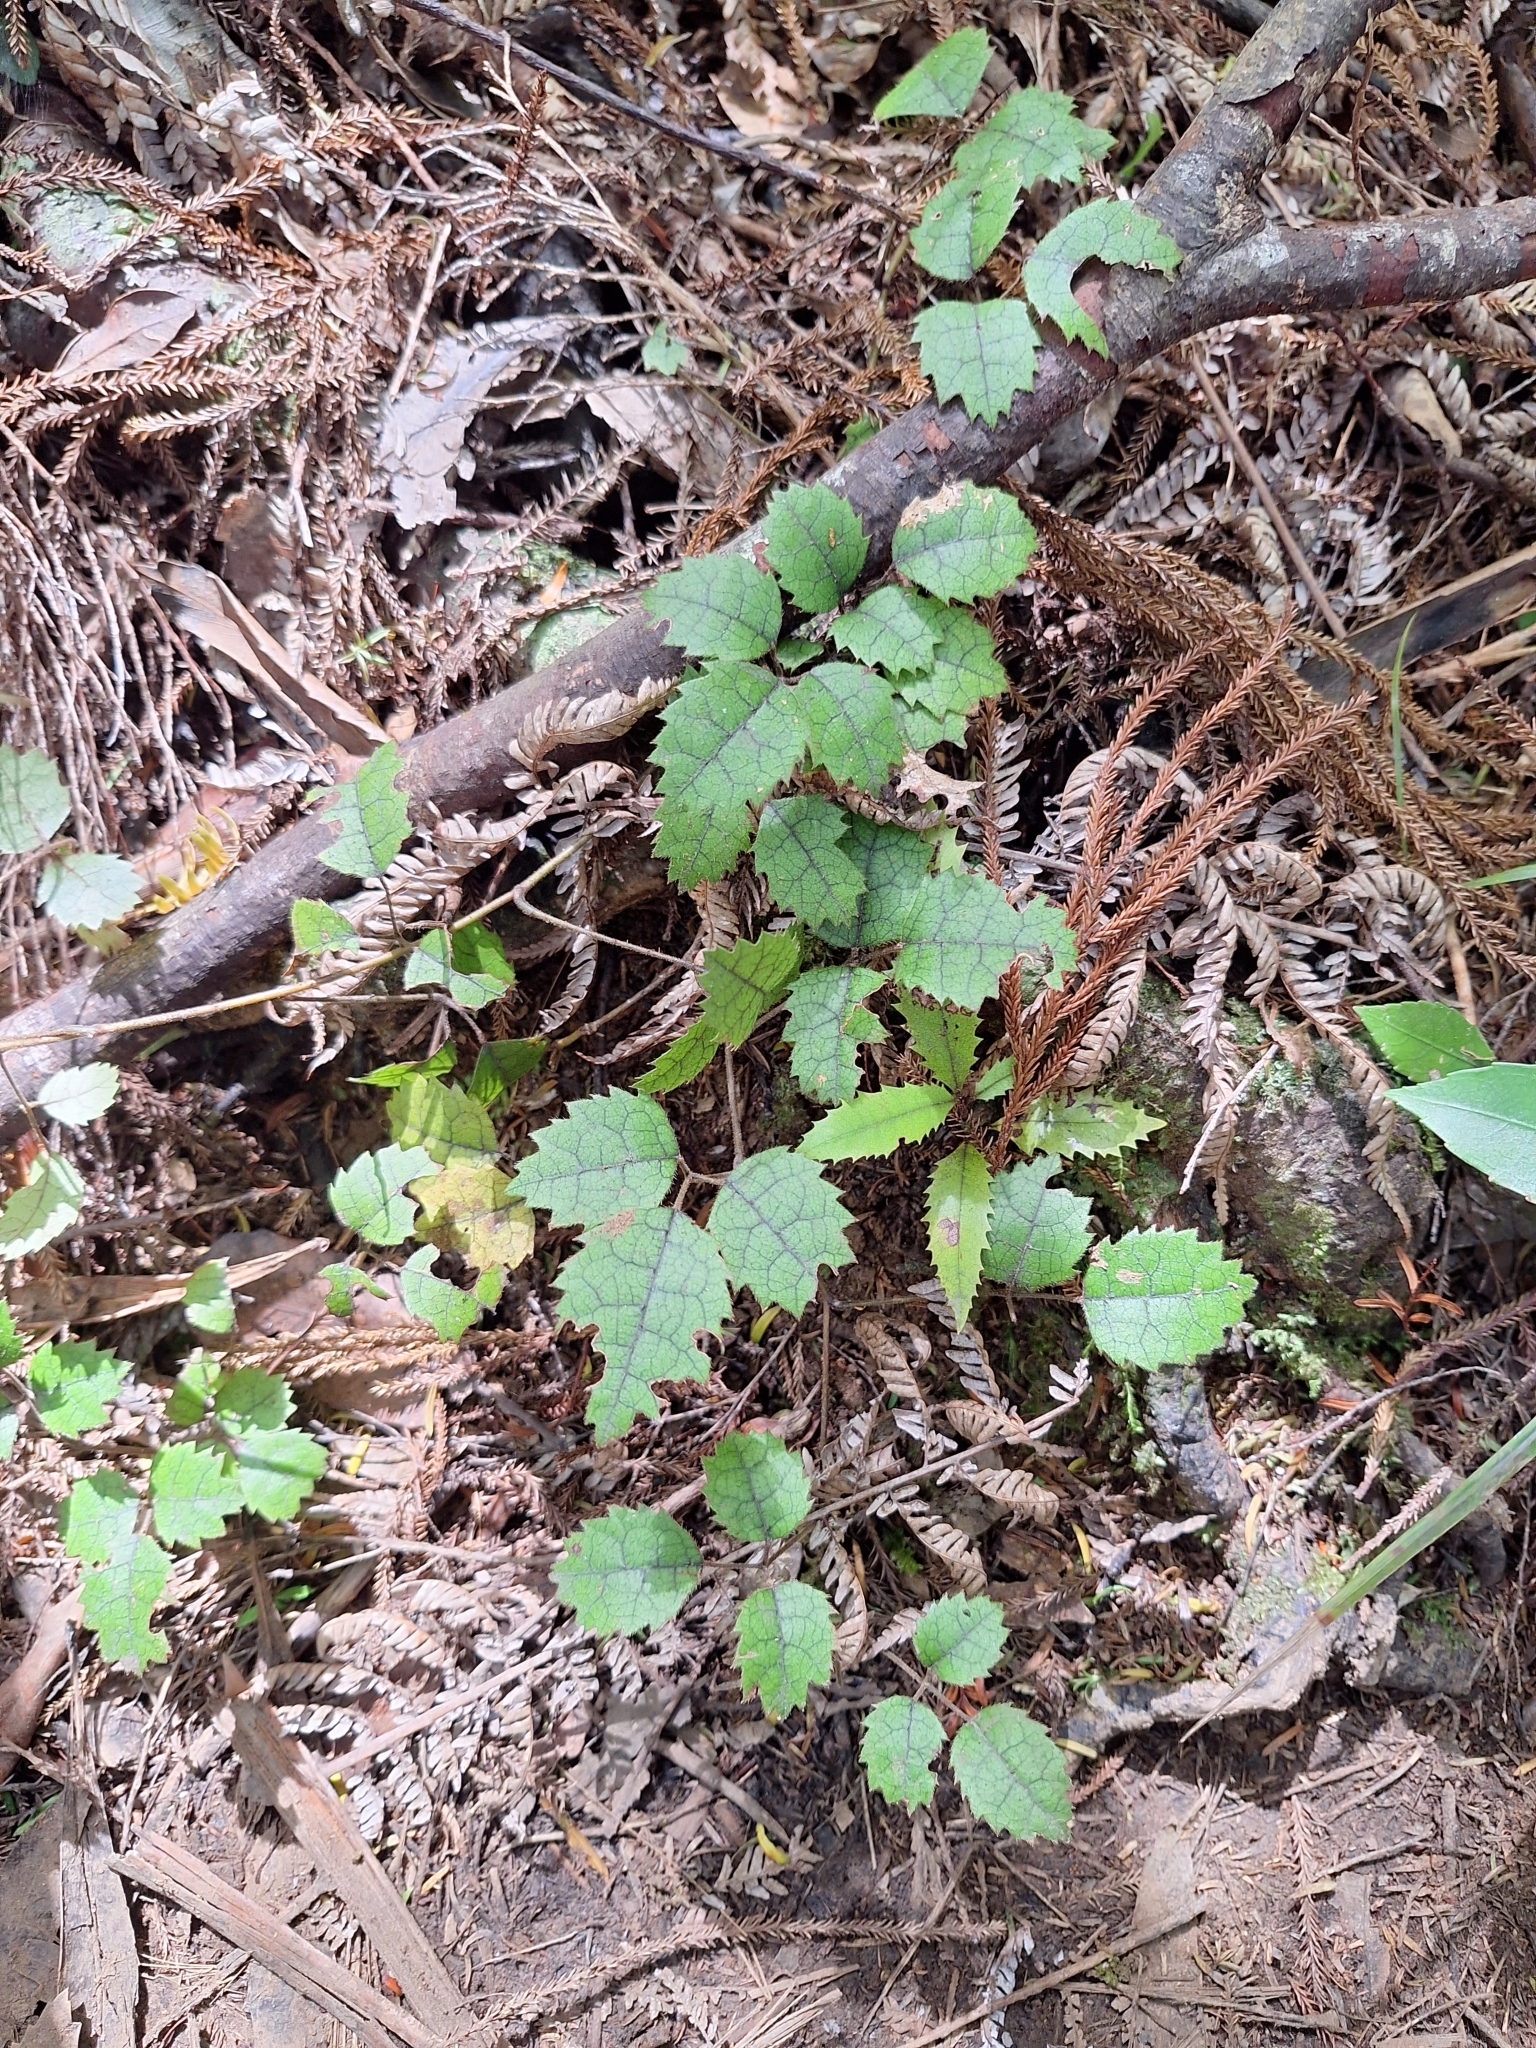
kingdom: Plantae
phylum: Tracheophyta
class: Magnoliopsida
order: Rosales
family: Rosaceae
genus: Rubus
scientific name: Rubus australis
